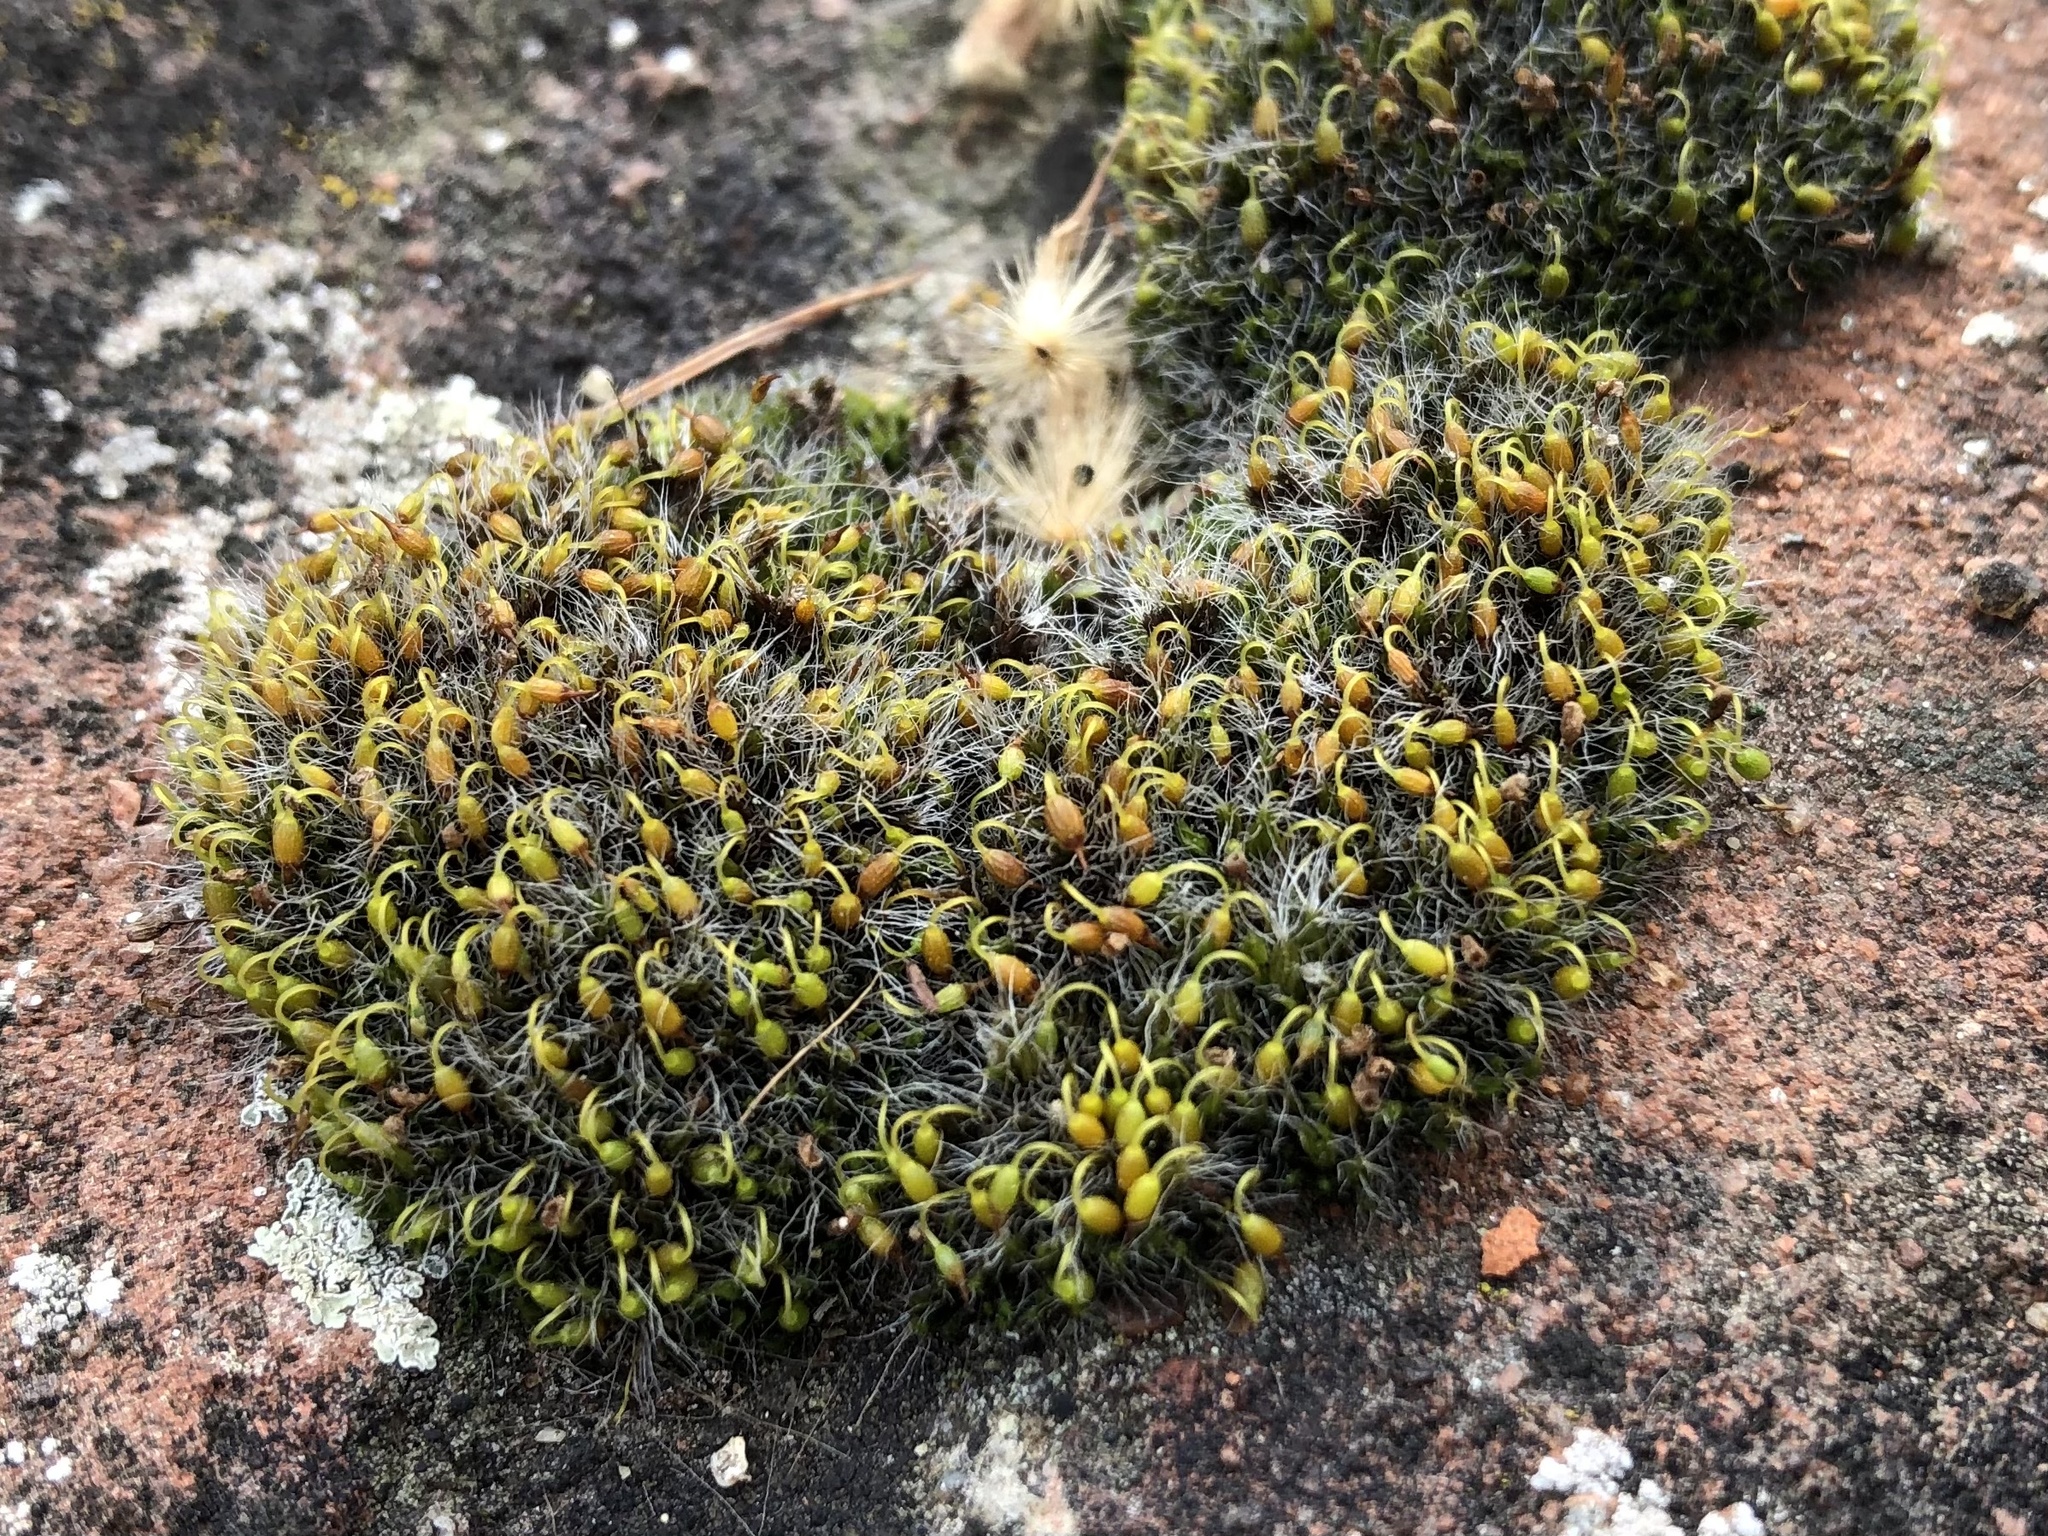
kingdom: Plantae
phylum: Bryophyta
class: Bryopsida
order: Grimmiales
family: Grimmiaceae
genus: Grimmia
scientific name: Grimmia pulvinata
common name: Grey-cushioned grimmia
